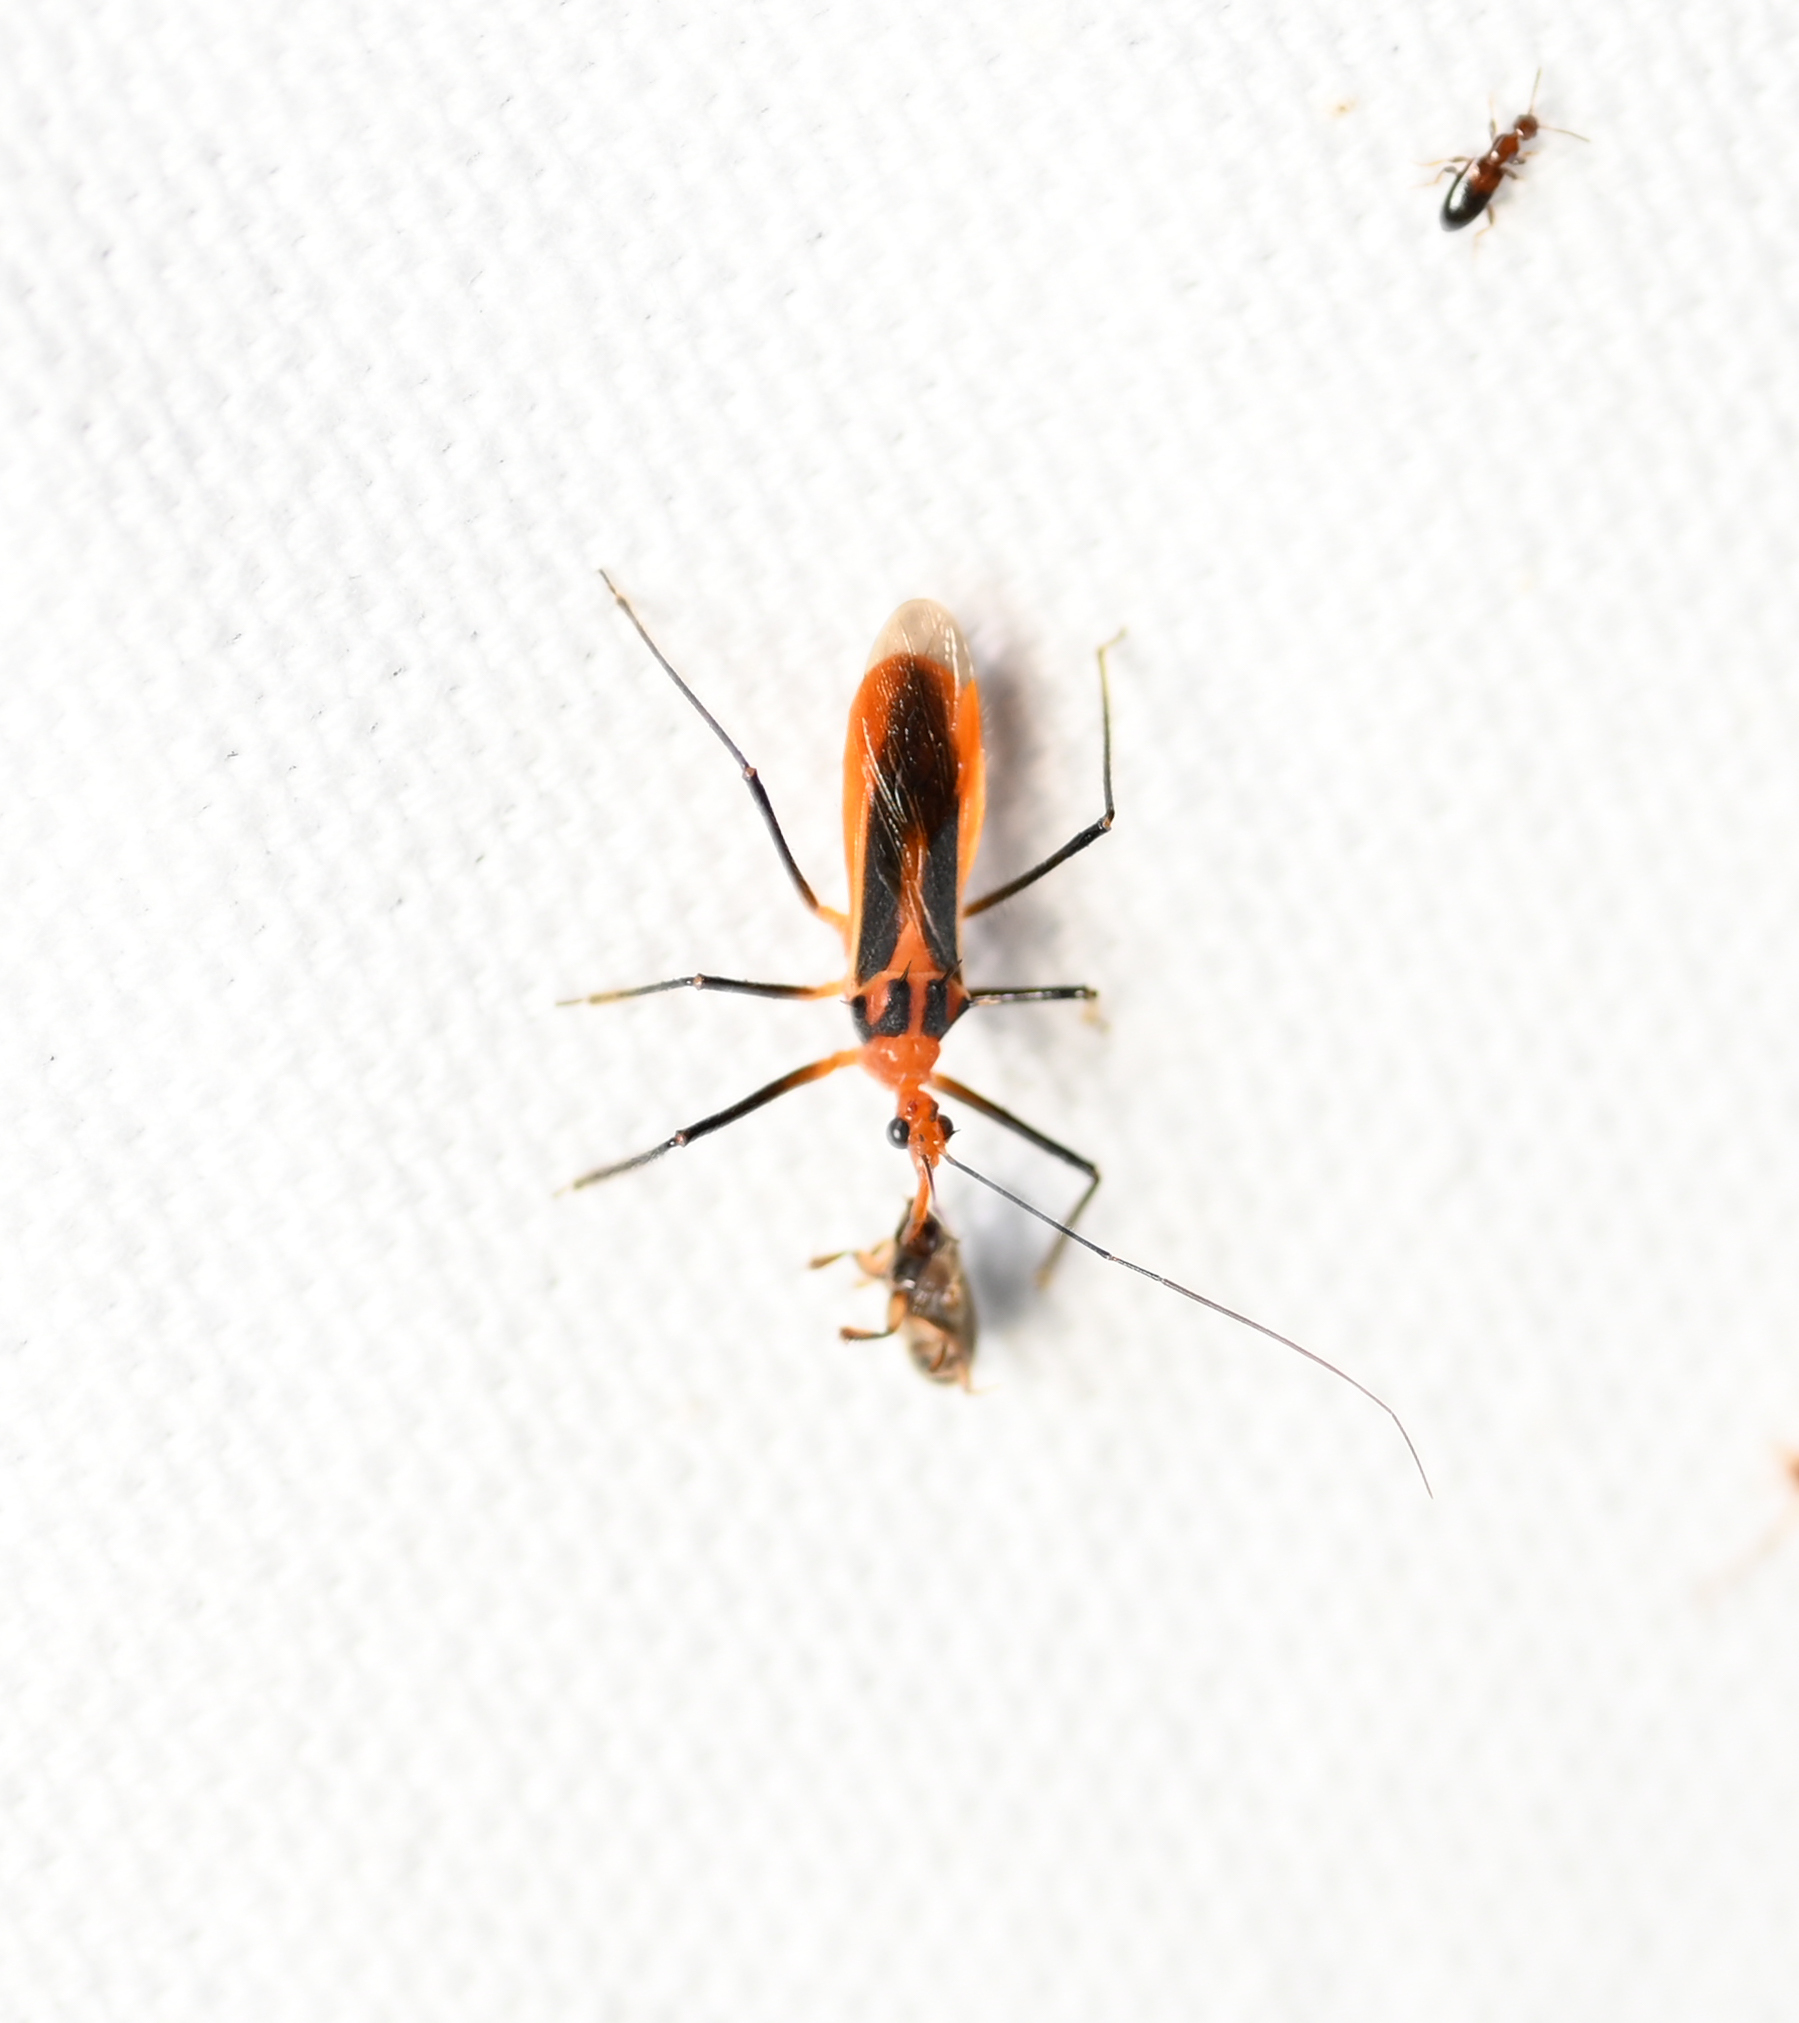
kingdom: Animalia
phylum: Arthropoda
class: Insecta
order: Hemiptera
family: Reduviidae
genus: Repipta
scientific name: Repipta taurus
